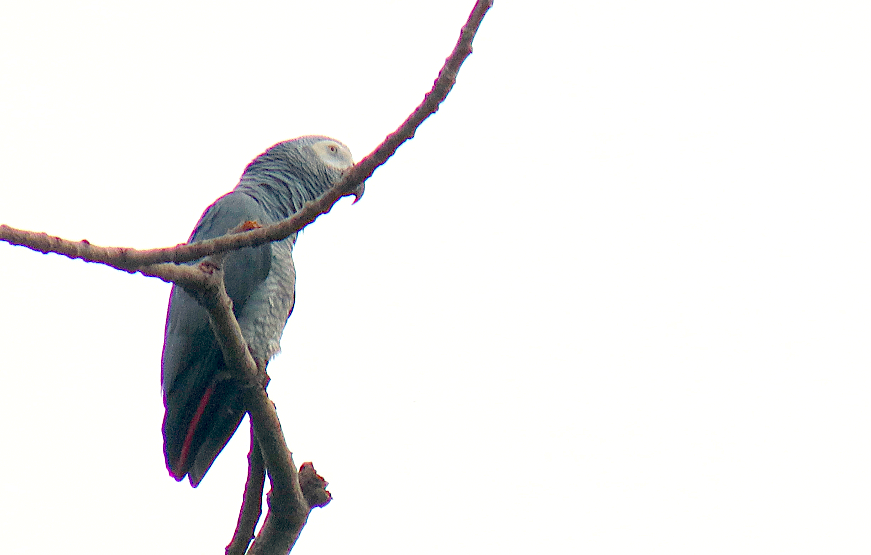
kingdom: Animalia
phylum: Chordata
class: Aves
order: Psittaciformes
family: Psittacidae
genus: Psittacus
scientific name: Psittacus erithacus
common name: Grey parrot
